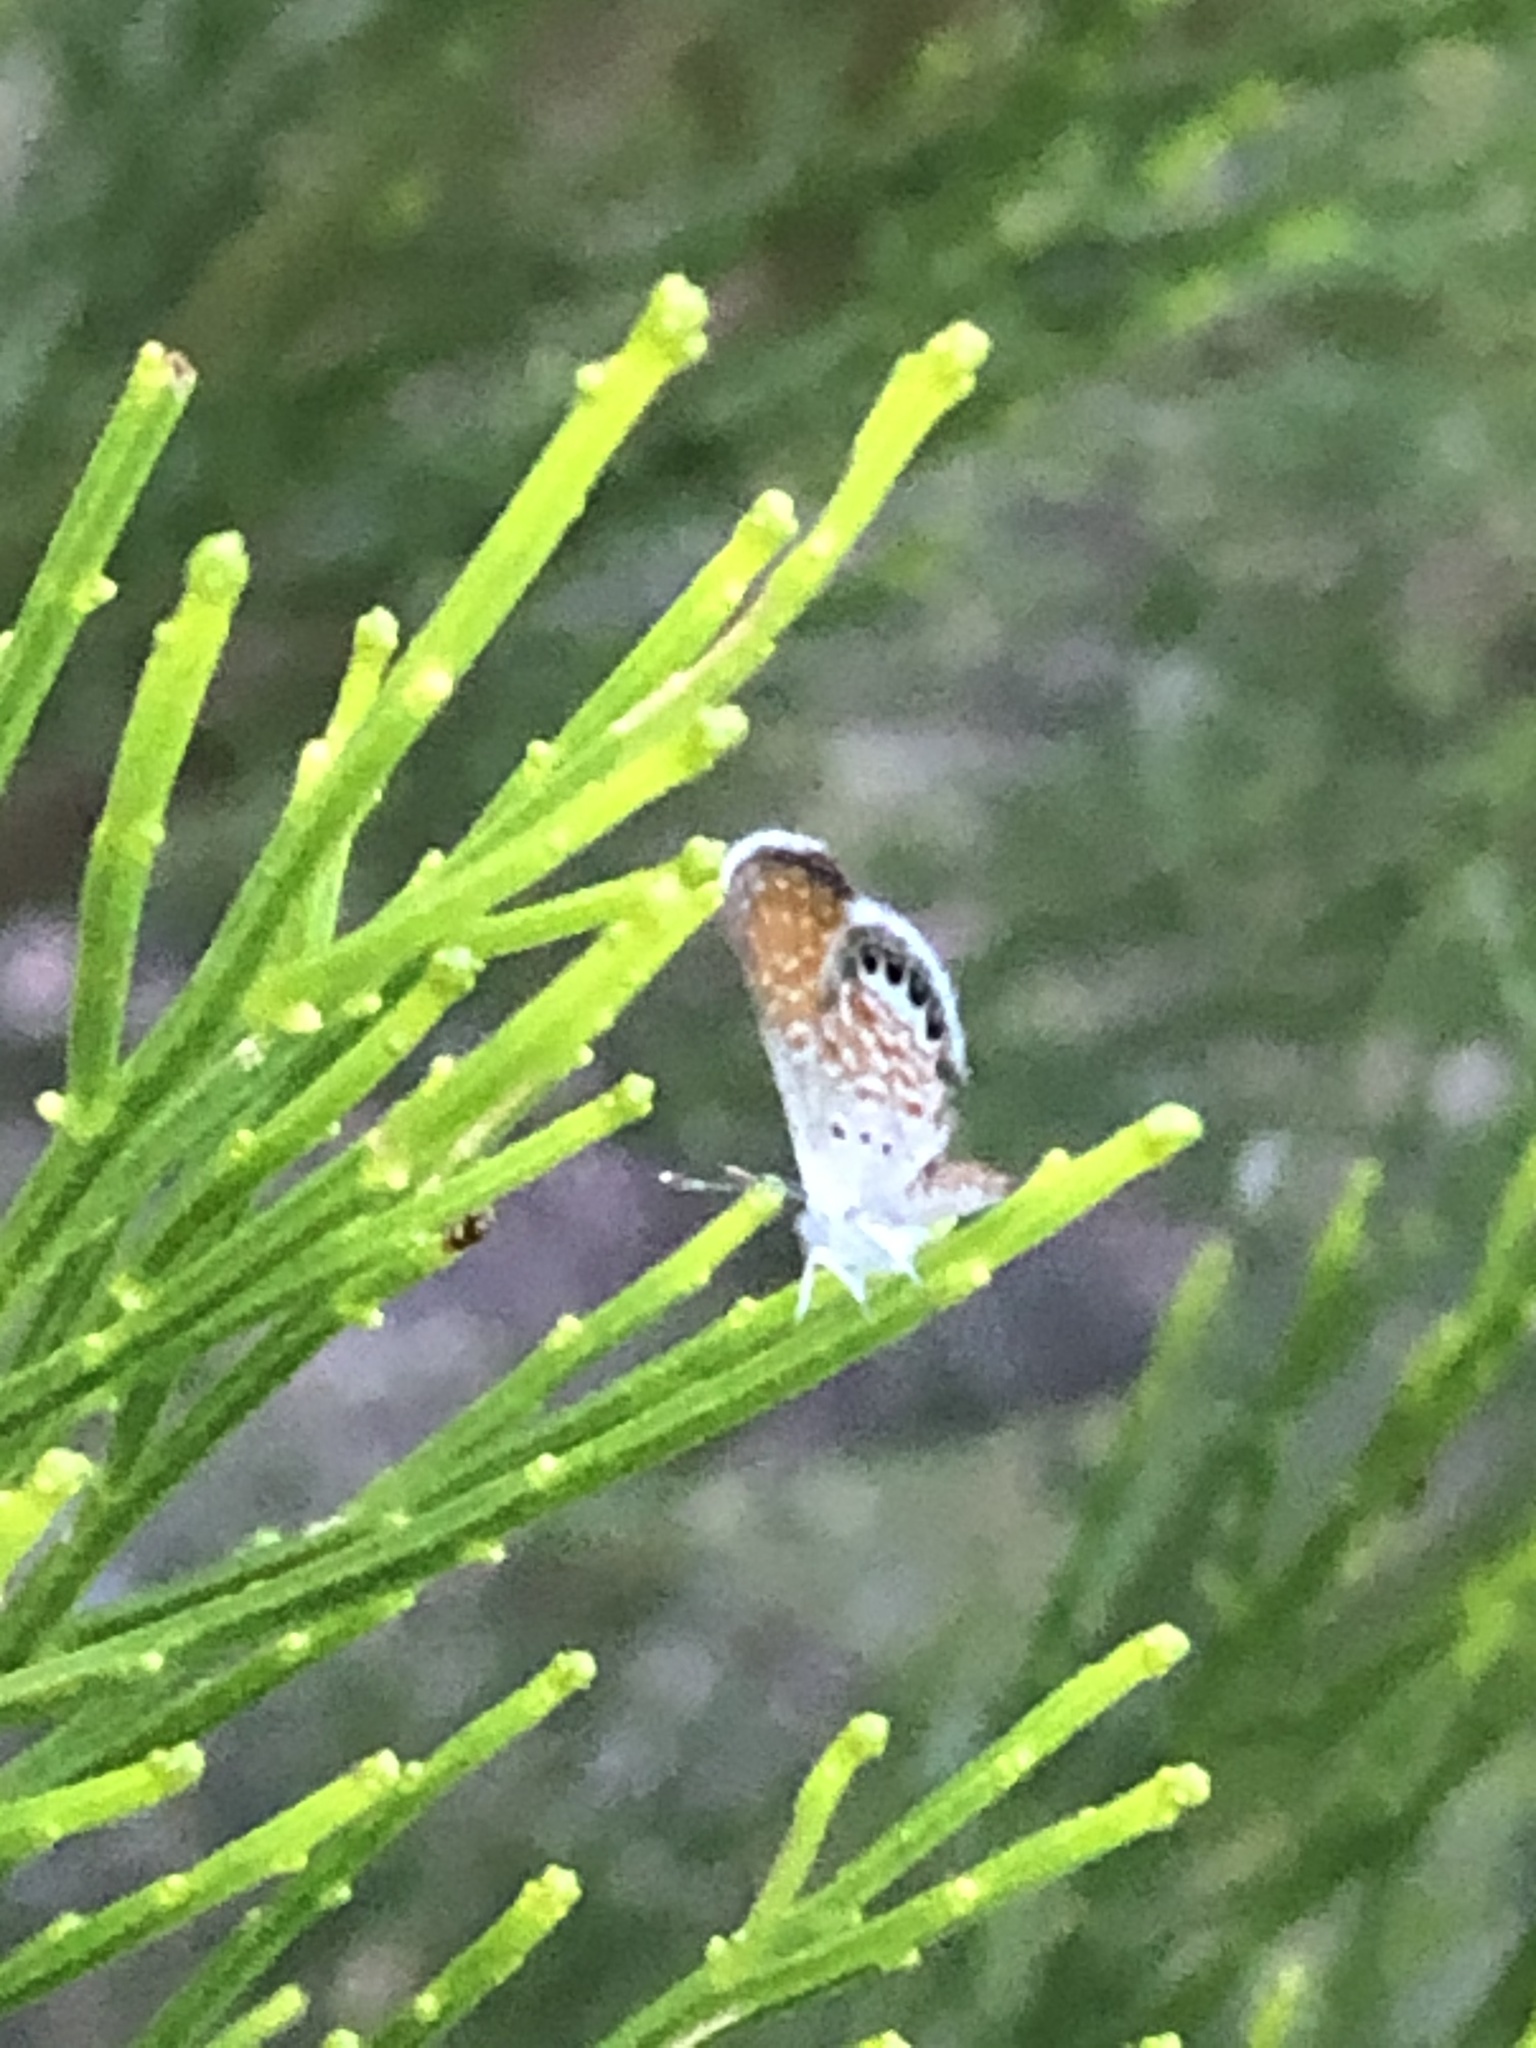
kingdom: Animalia
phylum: Arthropoda
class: Insecta
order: Lepidoptera
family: Lycaenidae
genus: Brephidium
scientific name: Brephidium exilis
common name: Pygmy blue
